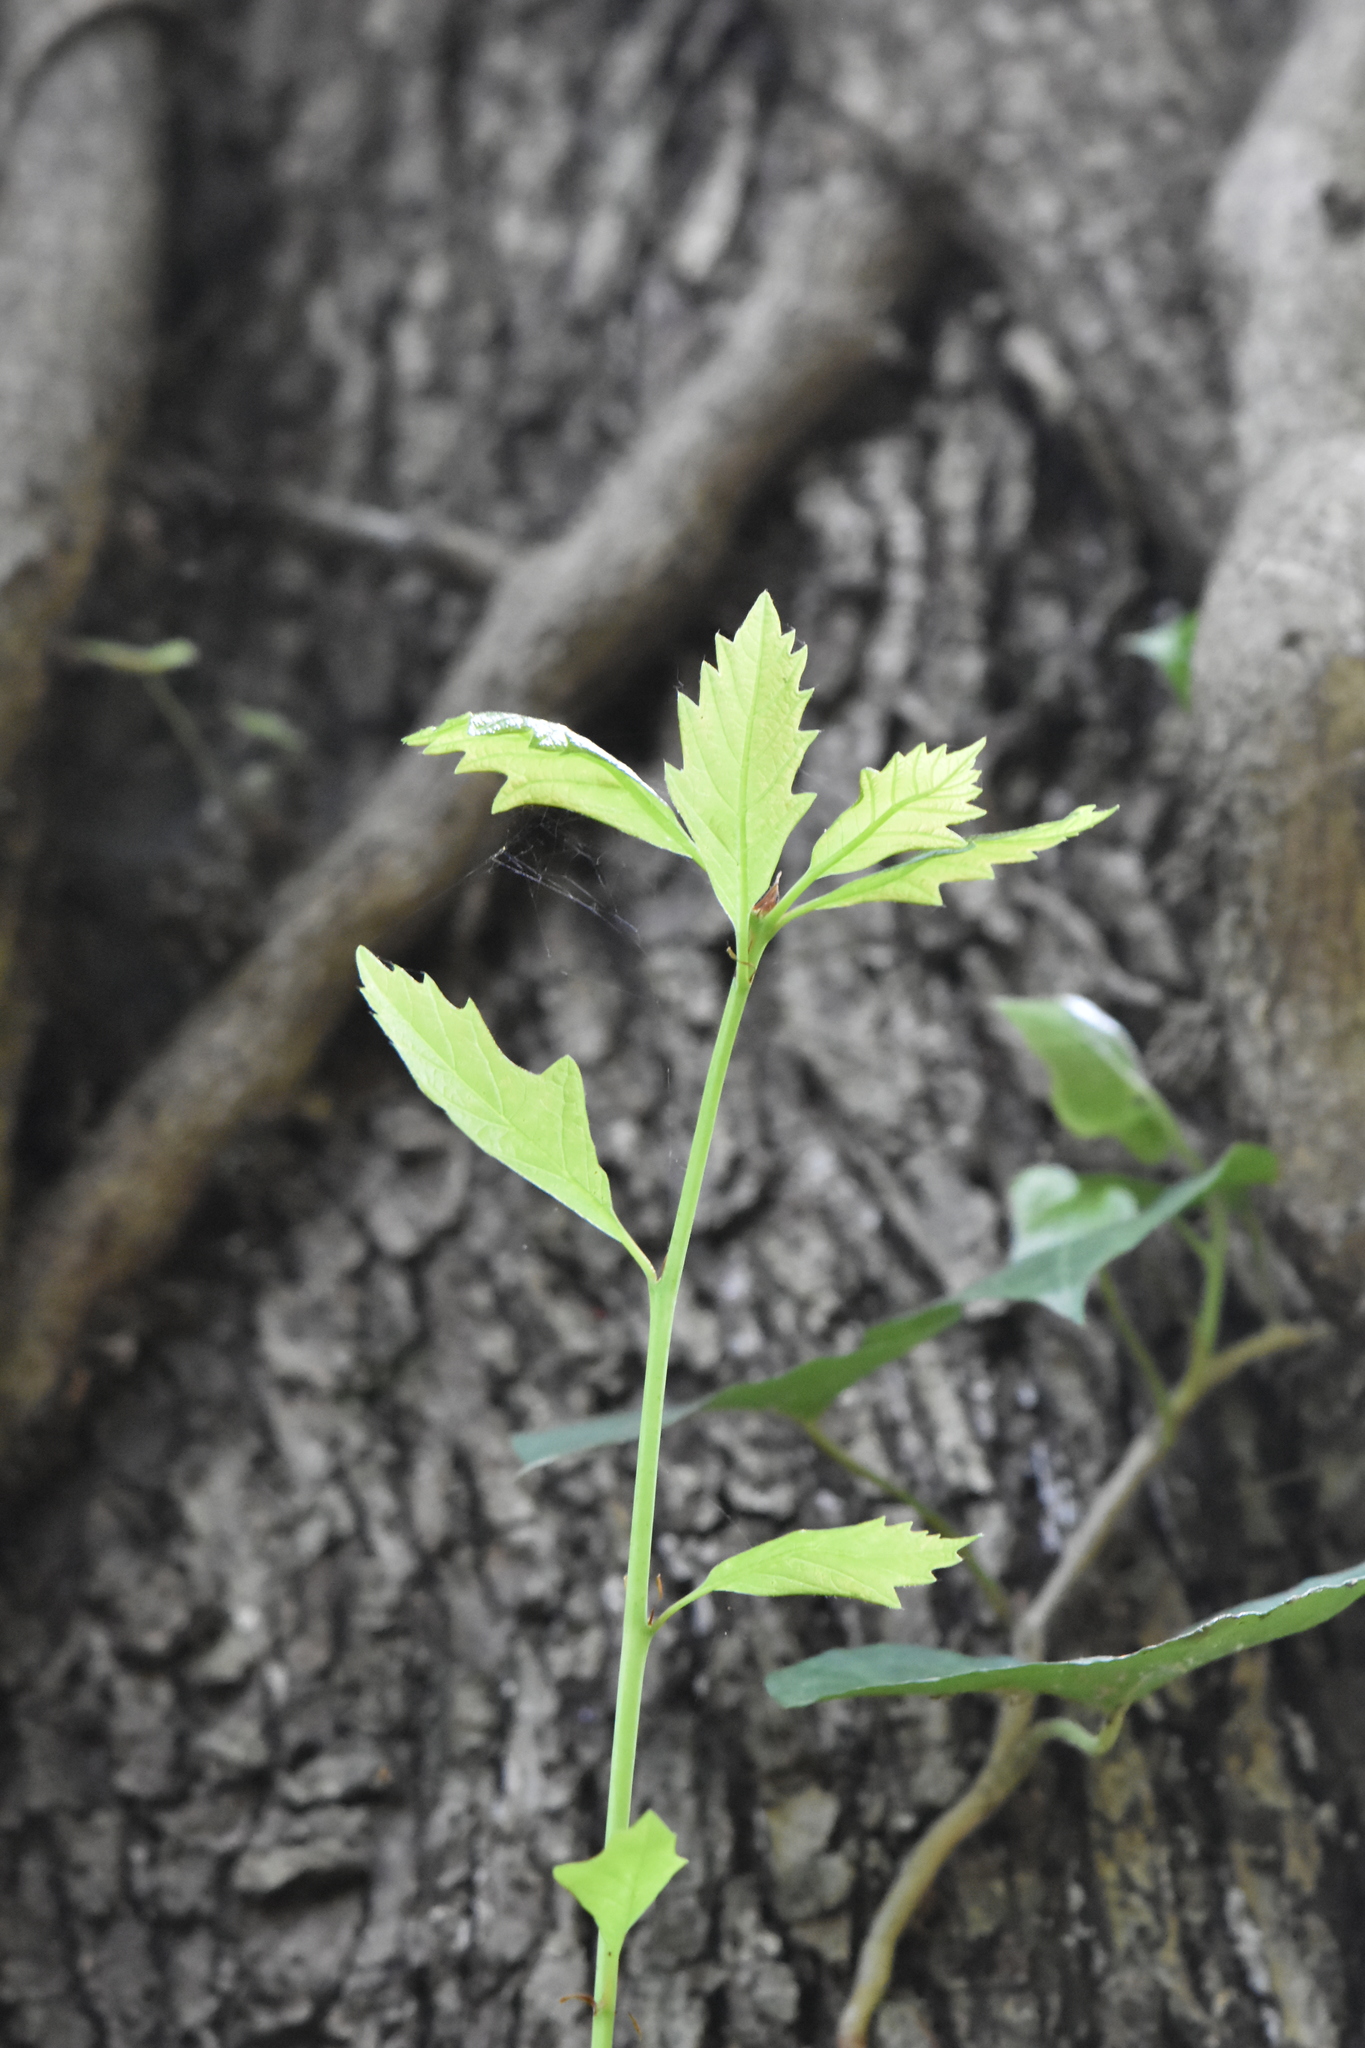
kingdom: Plantae
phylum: Tracheophyta
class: Magnoliopsida
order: Lamiales
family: Lamiaceae
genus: Lycopus
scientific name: Lycopus europaeus
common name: European bugleweed
